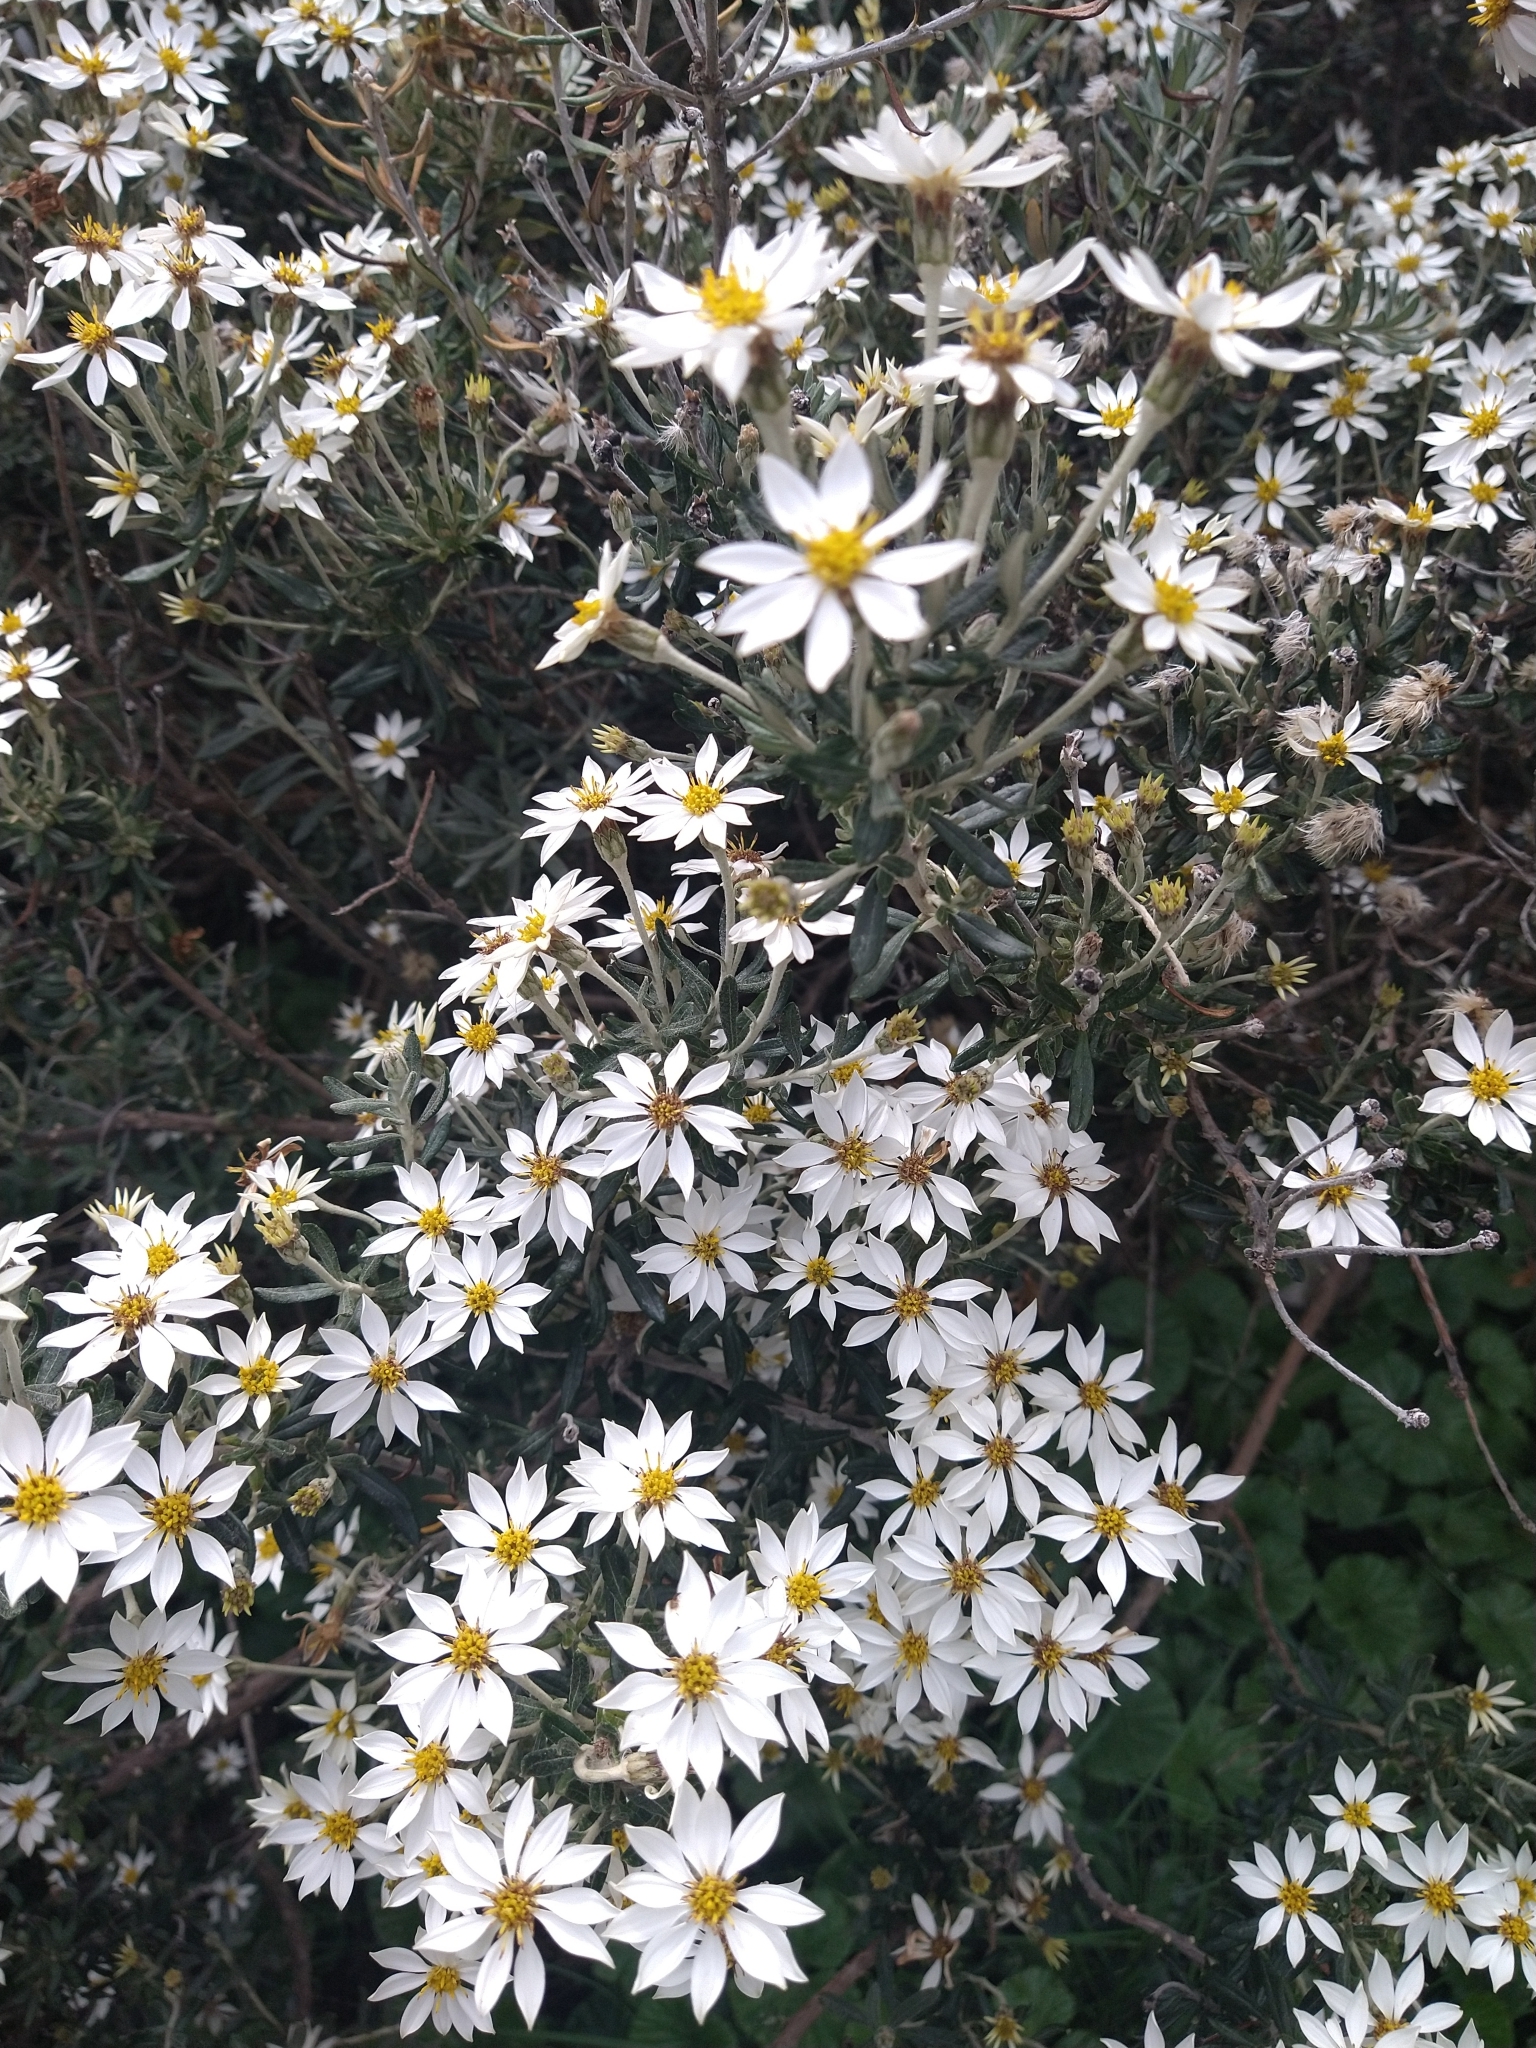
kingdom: Plantae
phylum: Tracheophyta
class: Magnoliopsida
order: Asterales
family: Asteraceae
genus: Chiliotrichum
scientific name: Chiliotrichum diffusum
